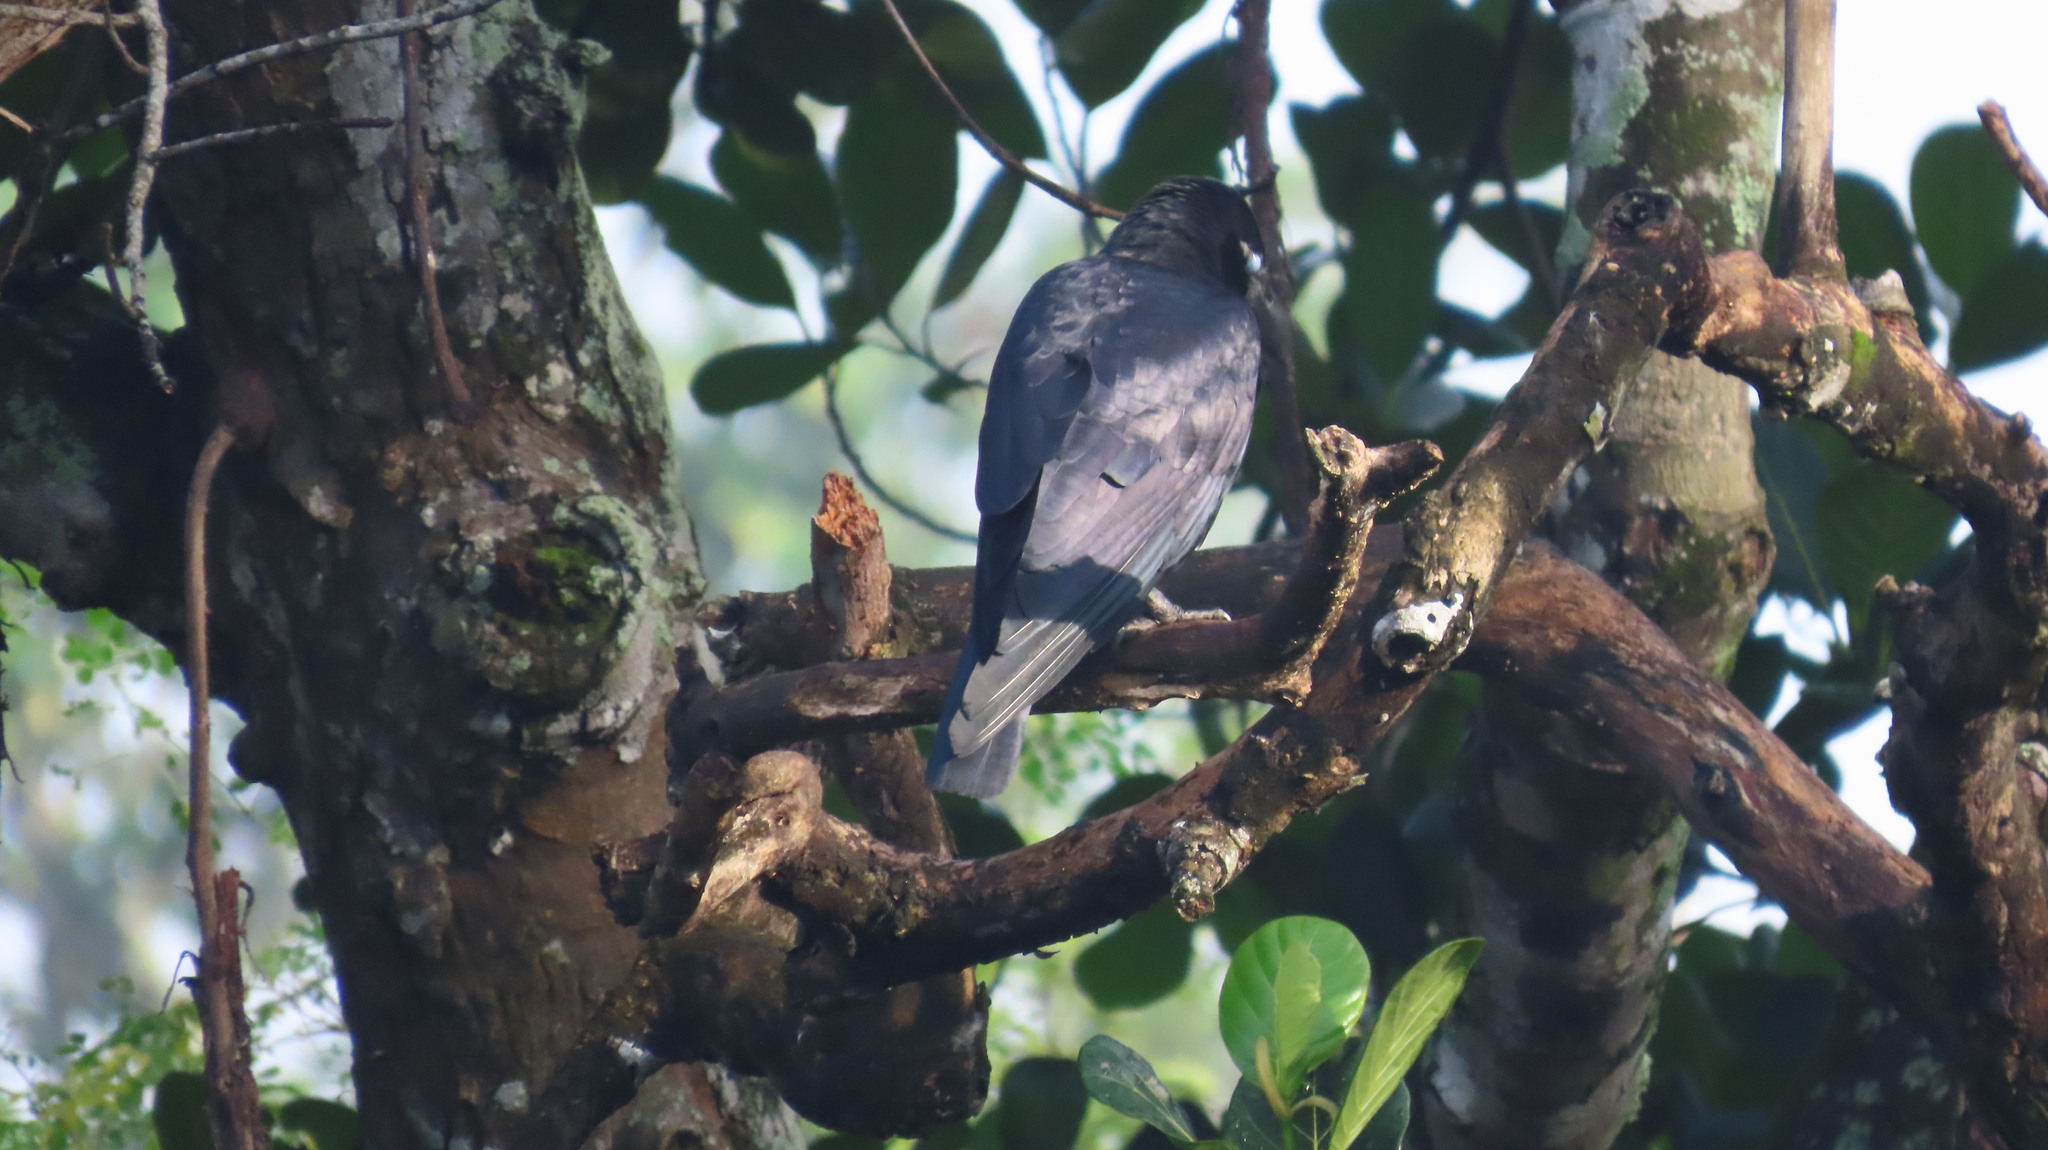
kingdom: Animalia
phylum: Chordata
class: Aves
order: Passeriformes
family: Corvidae
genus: Corvus
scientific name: Corvus macrorhynchos
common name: Large-billed crow
